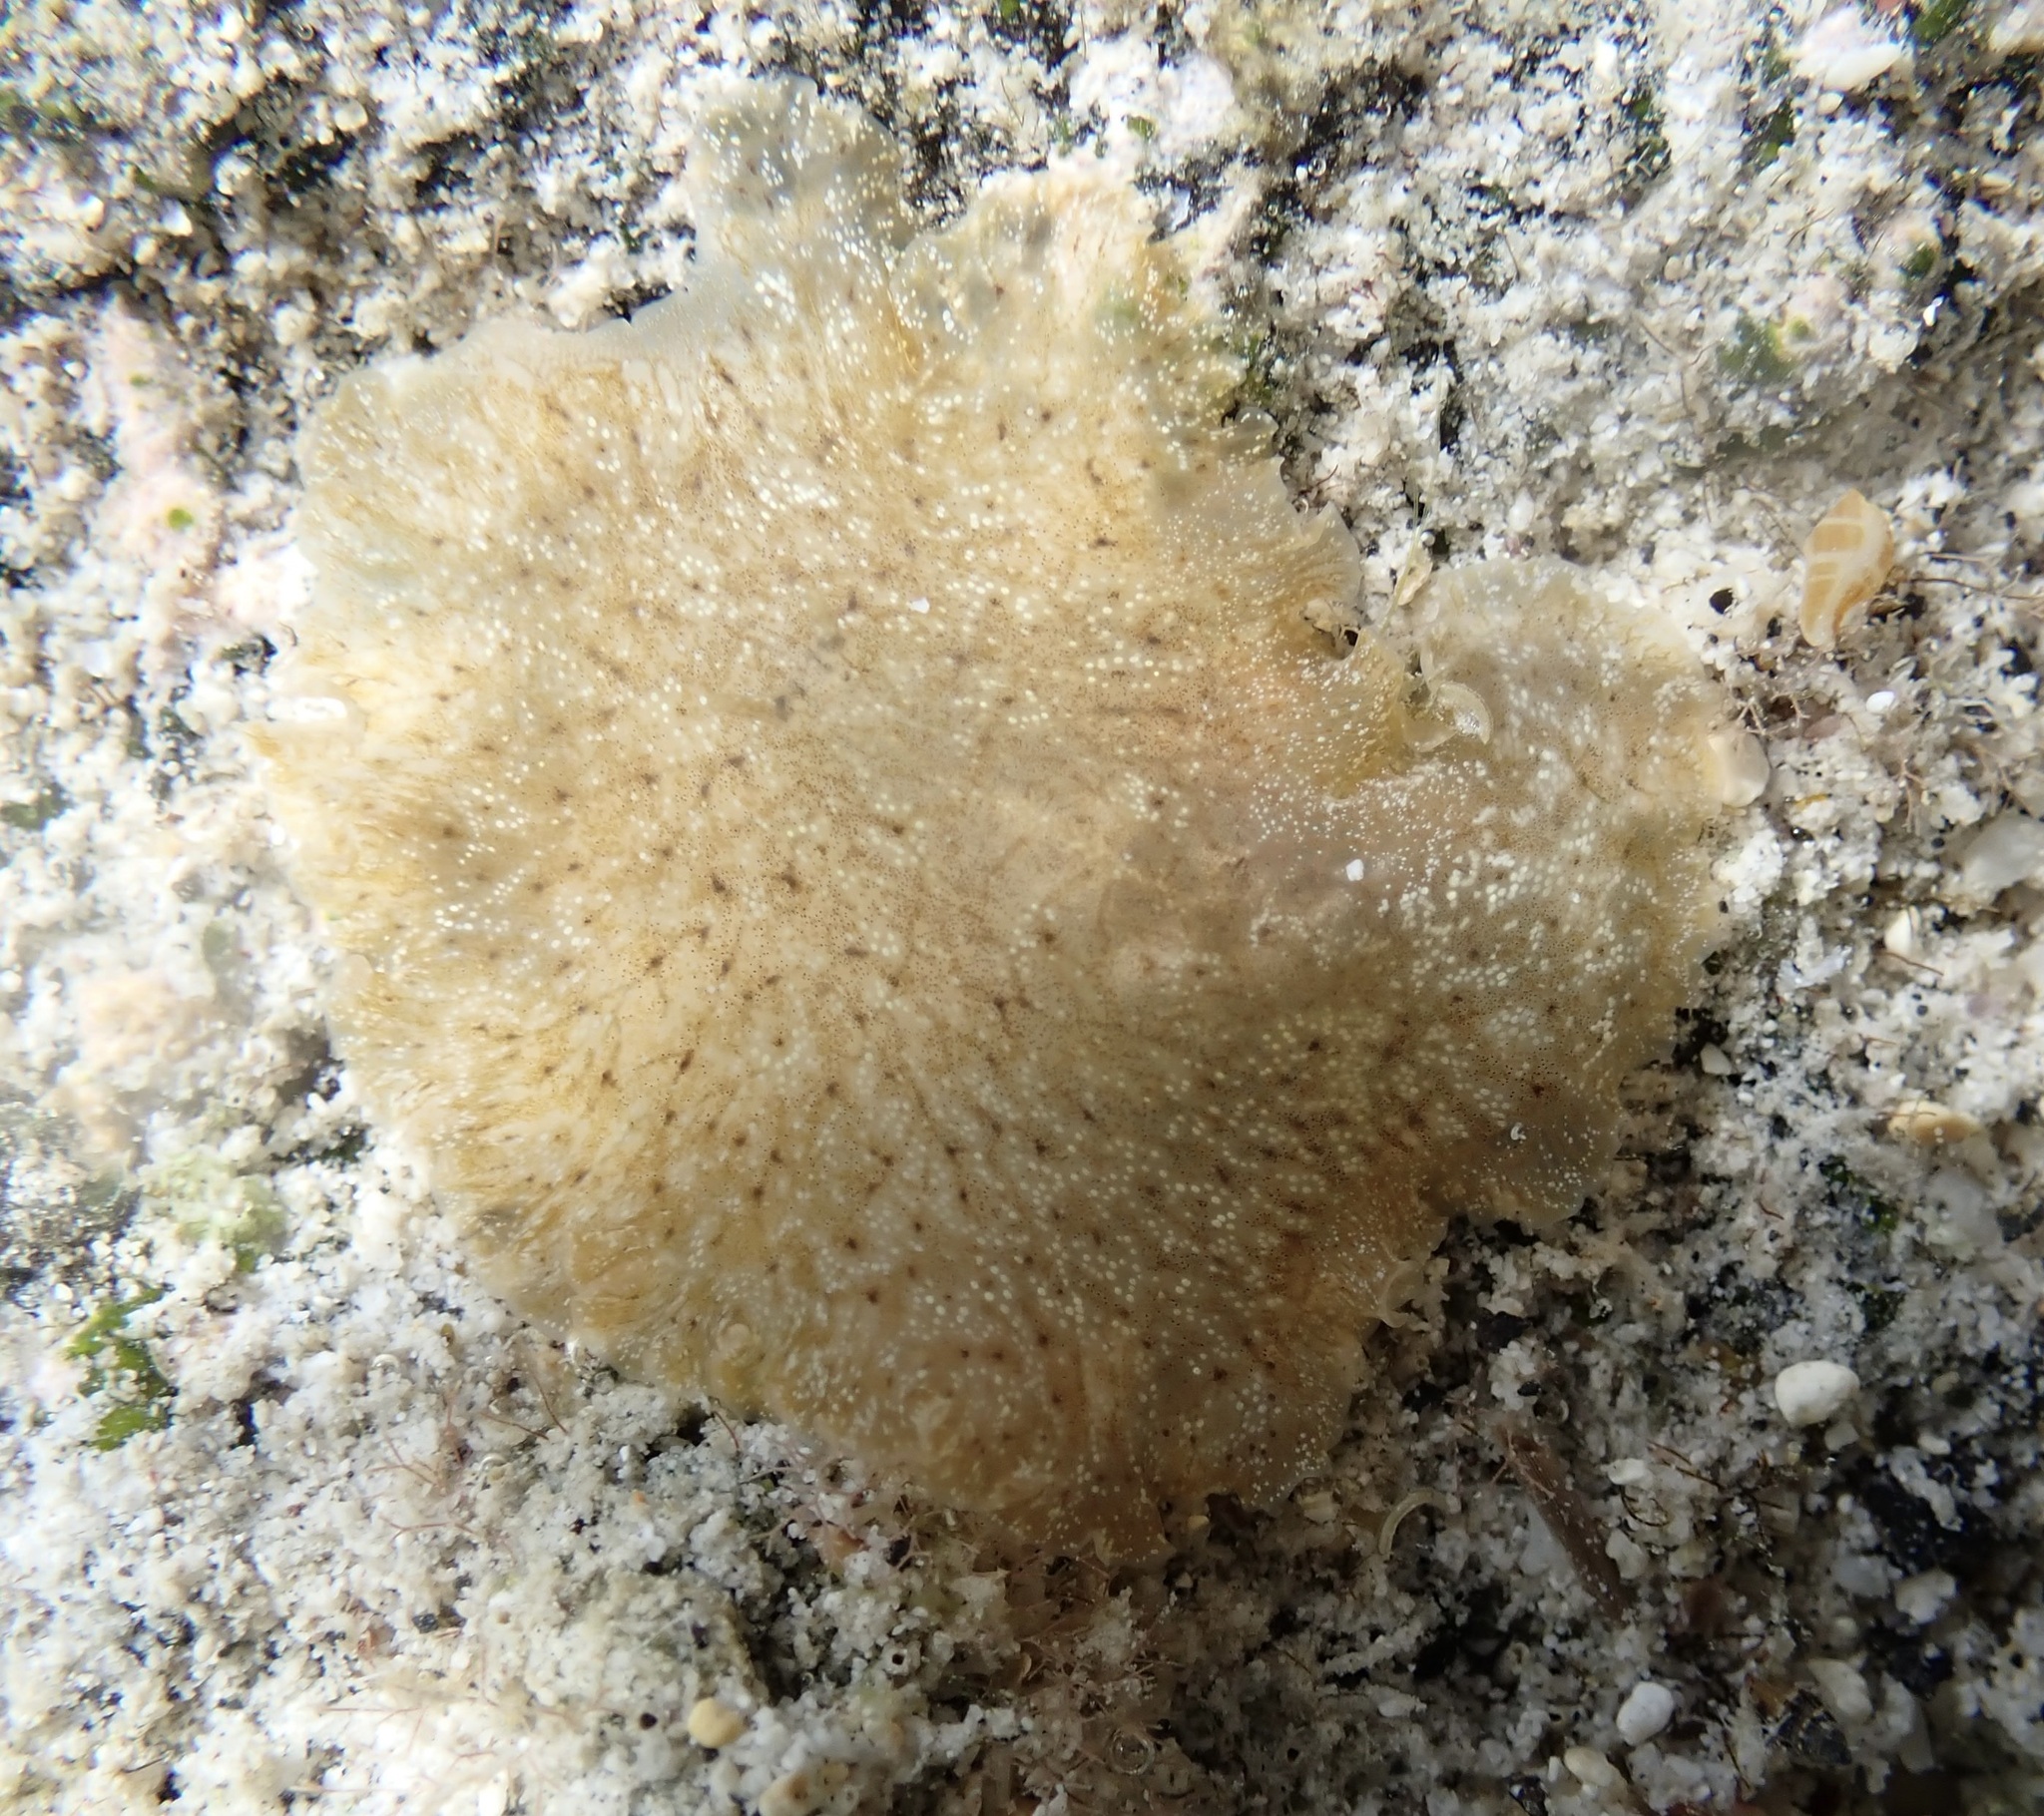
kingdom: Animalia
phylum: Platyhelminthes
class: Turbellaria
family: Planoceridae
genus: Paraplanocera
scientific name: Paraplanocera oligoglena
